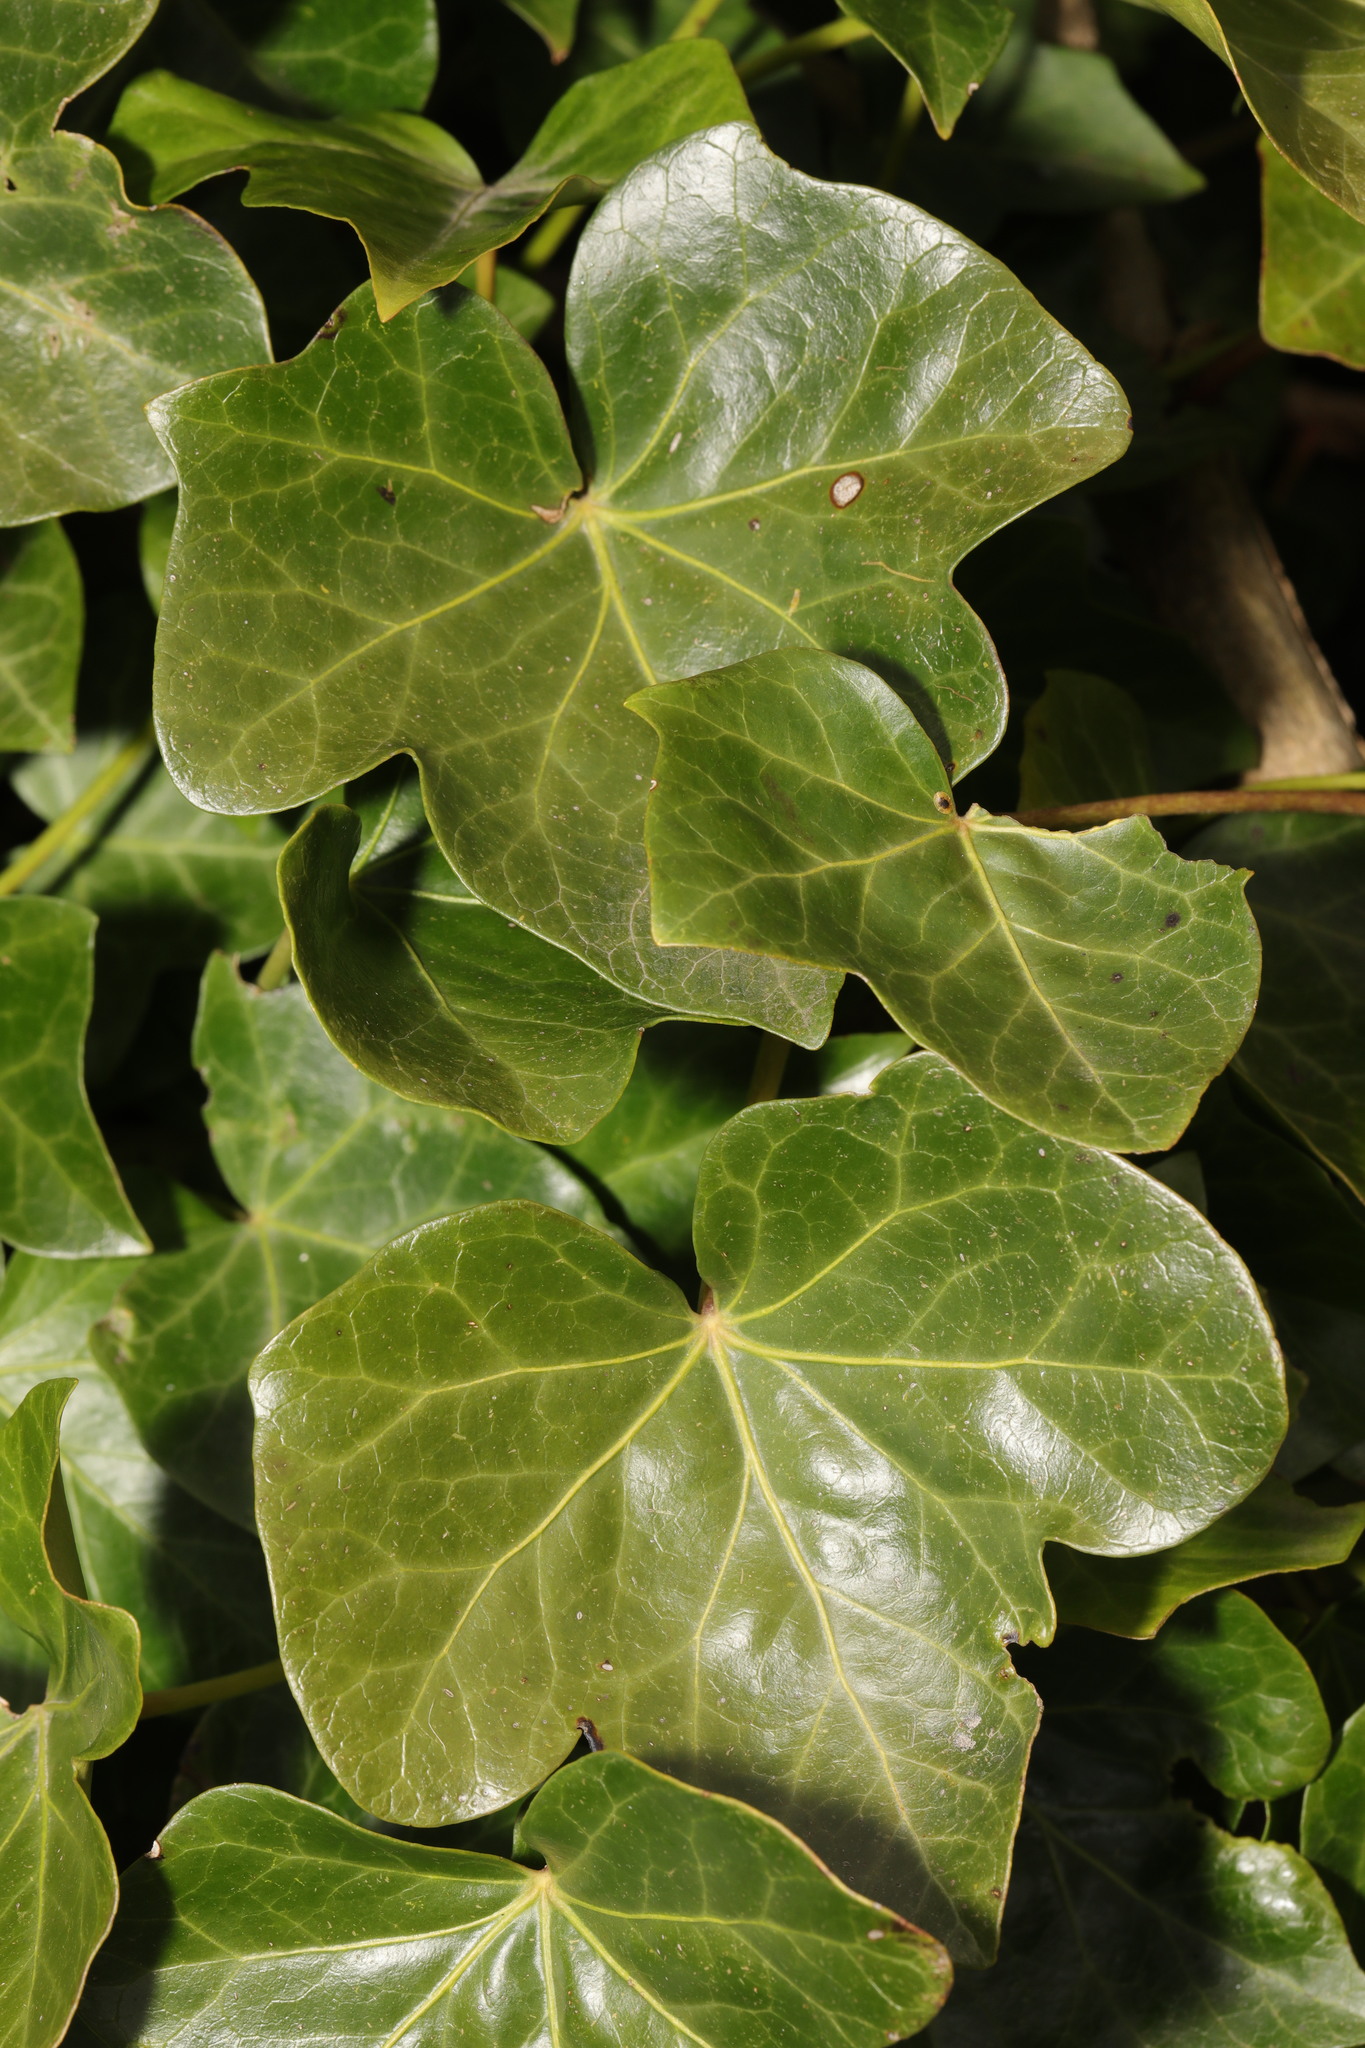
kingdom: Plantae
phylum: Tracheophyta
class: Magnoliopsida
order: Apiales
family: Araliaceae
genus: Hedera
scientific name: Hedera helix
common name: Ivy
